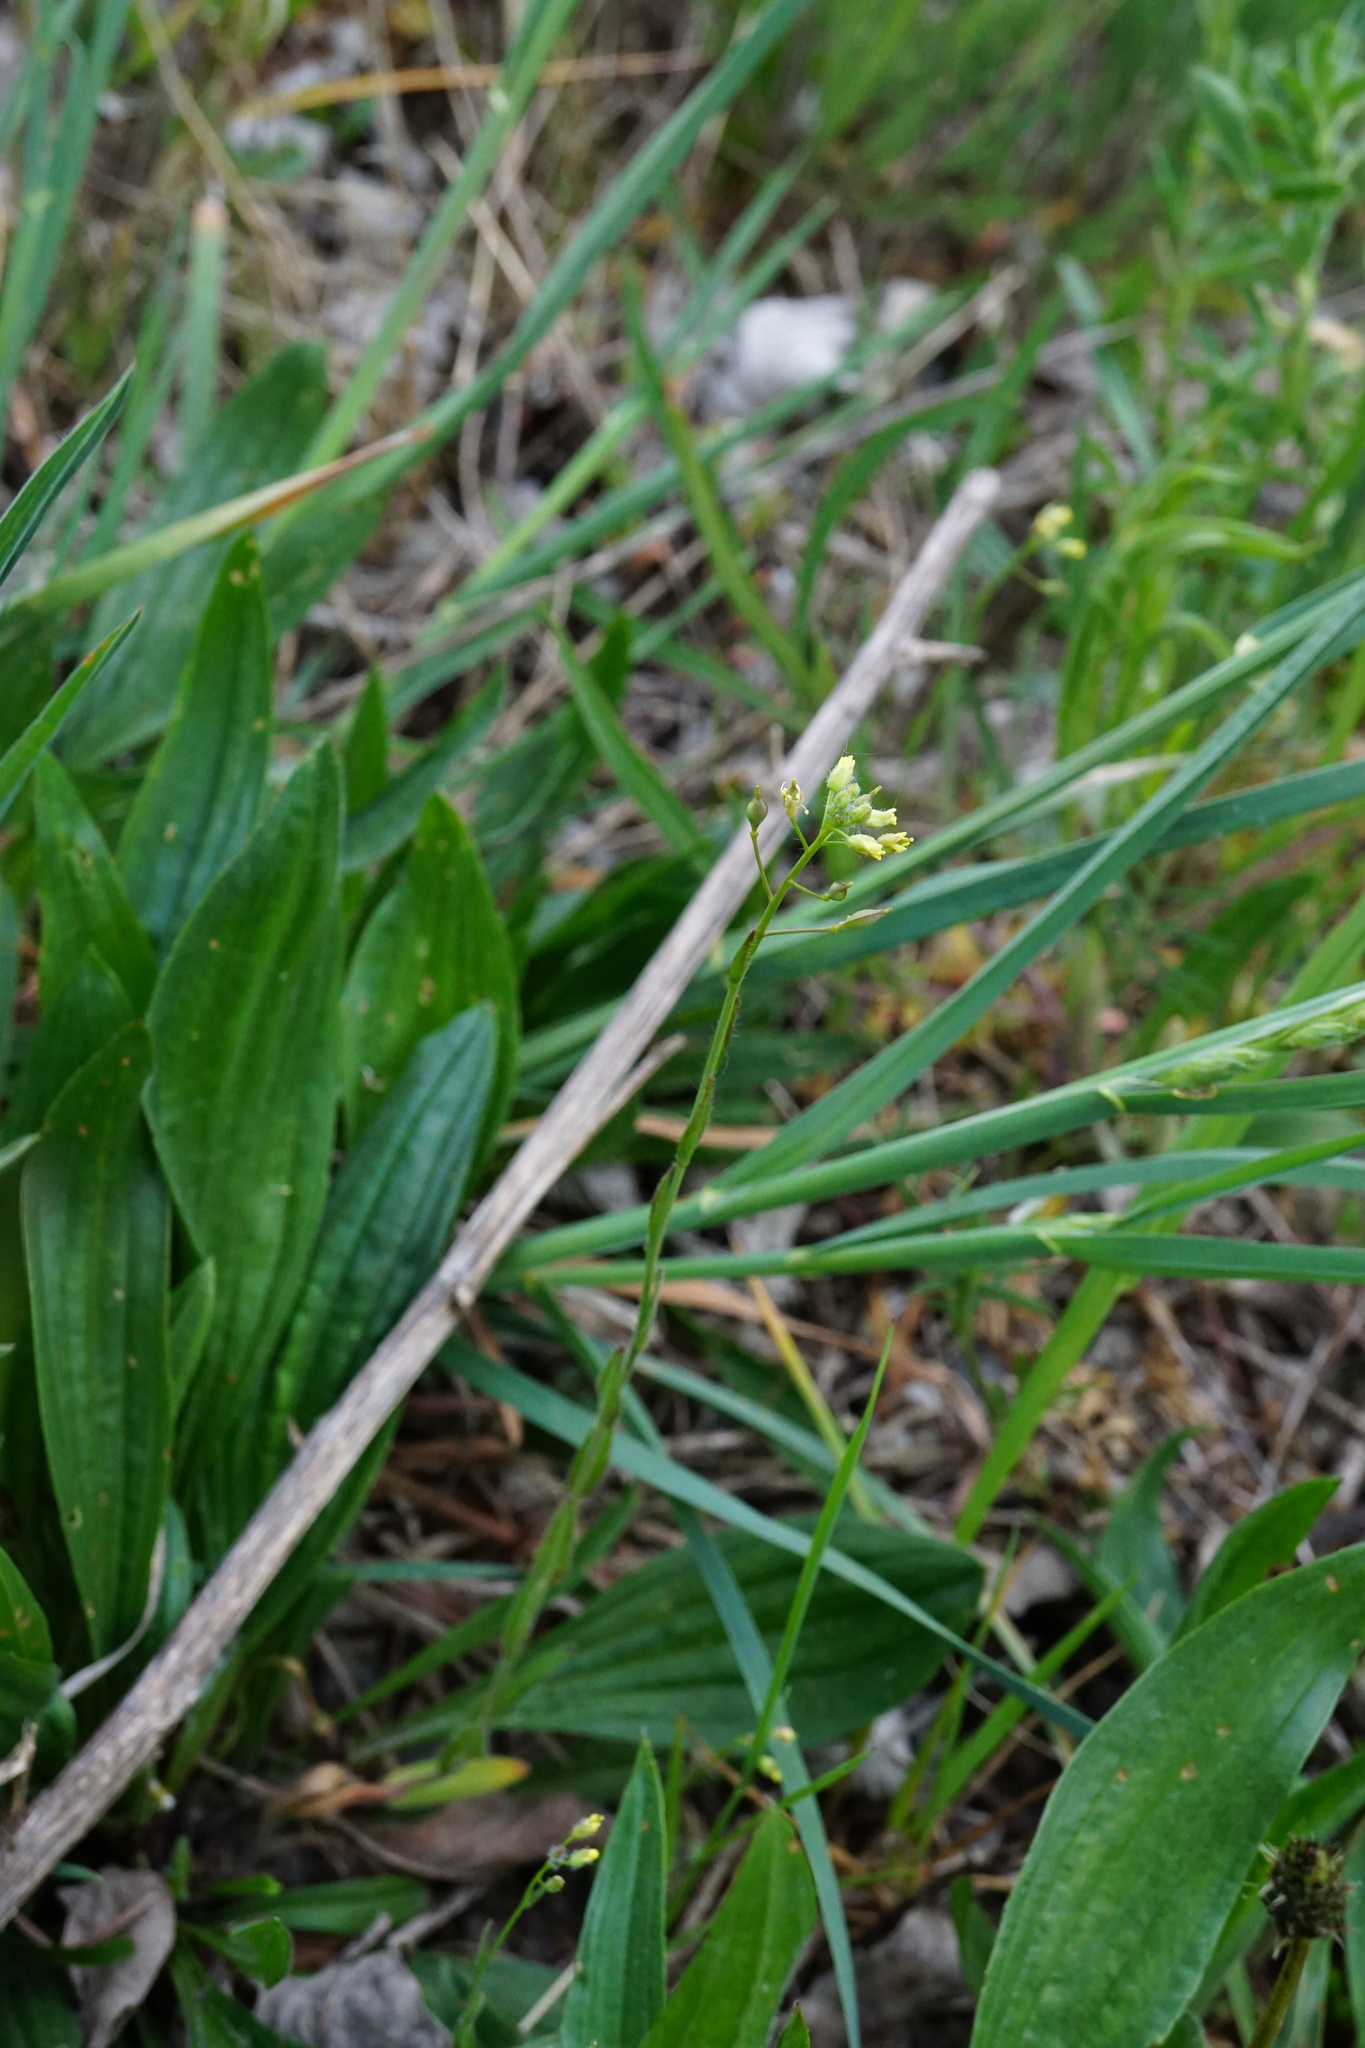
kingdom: Plantae
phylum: Tracheophyta
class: Magnoliopsida
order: Brassicales
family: Brassicaceae
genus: Camelina
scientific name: Camelina microcarpa
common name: Lesser gold-of-pleasure
